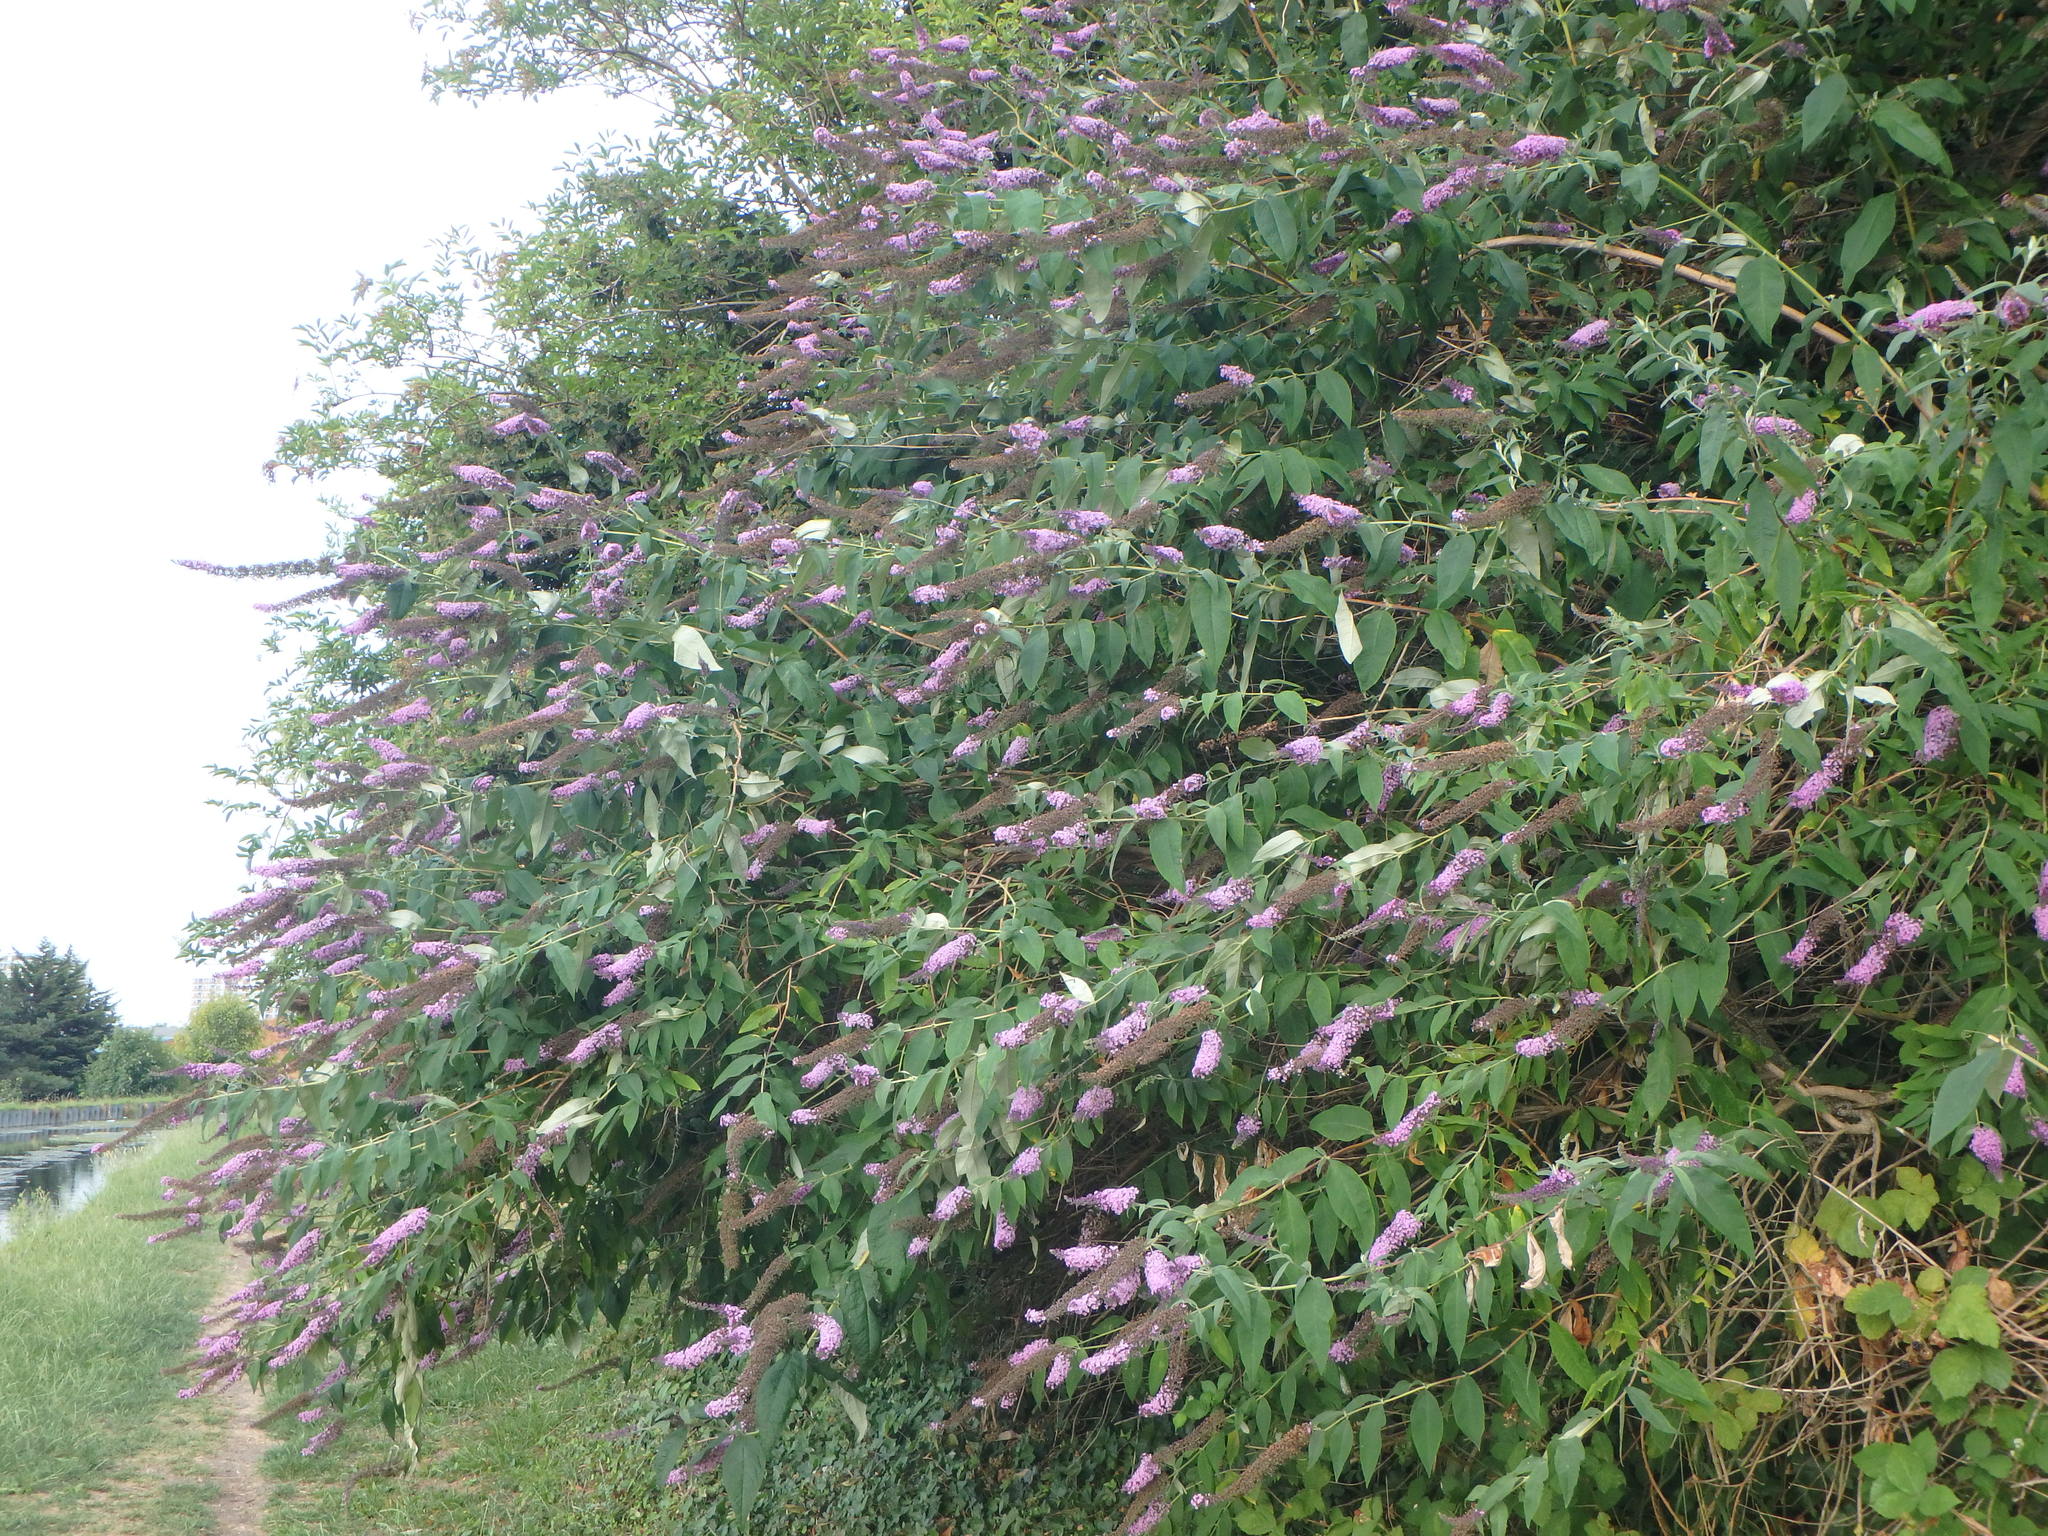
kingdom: Plantae
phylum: Tracheophyta
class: Magnoliopsida
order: Lamiales
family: Scrophulariaceae
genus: Buddleja
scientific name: Buddleja davidii
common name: Butterfly-bush
